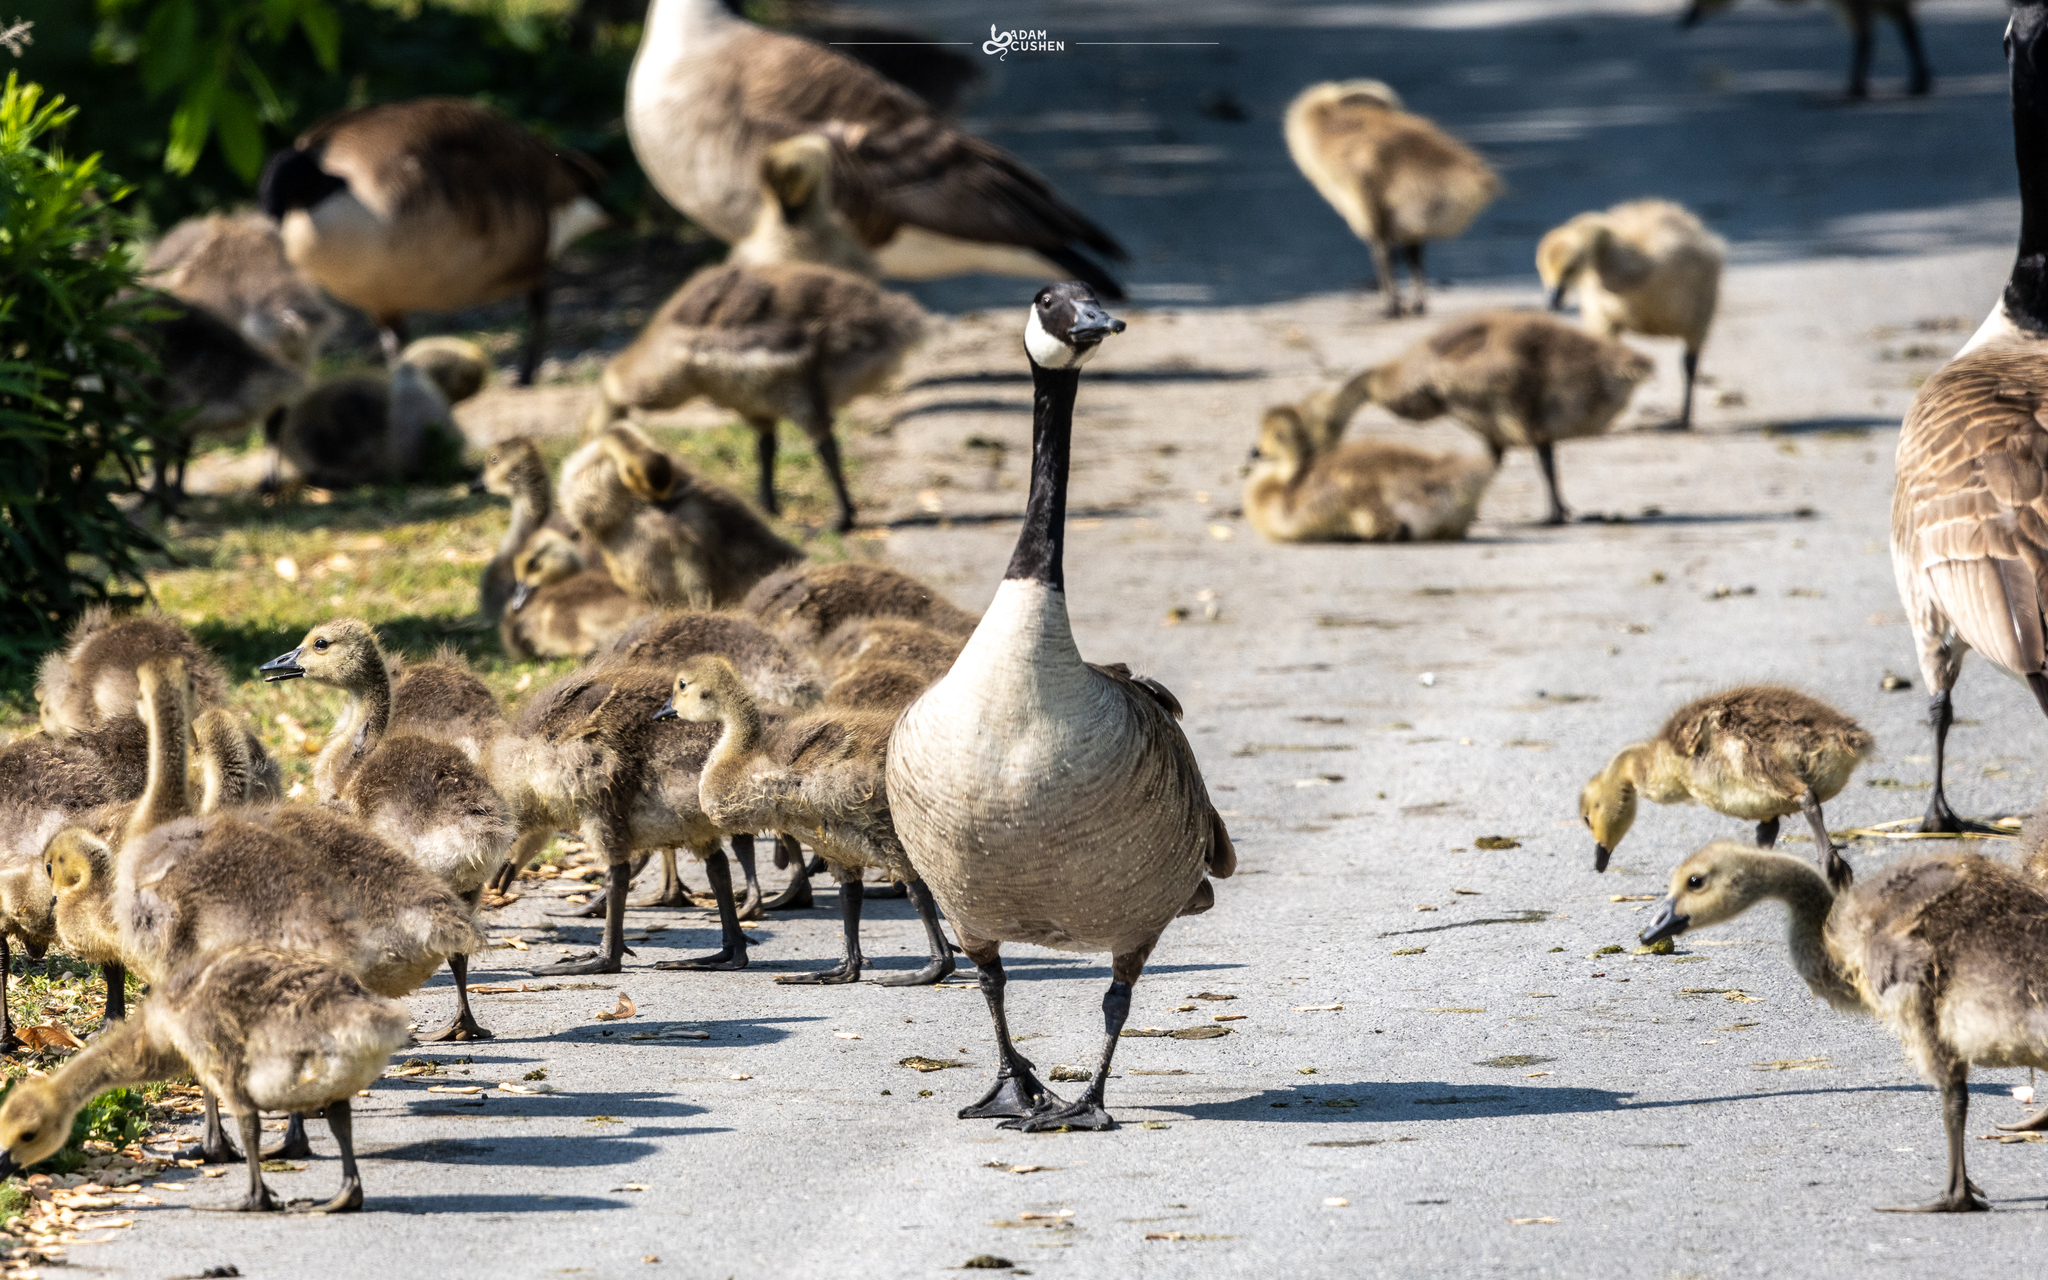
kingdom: Animalia
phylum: Chordata
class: Aves
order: Anseriformes
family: Anatidae
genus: Branta
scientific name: Branta canadensis
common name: Canada goose
